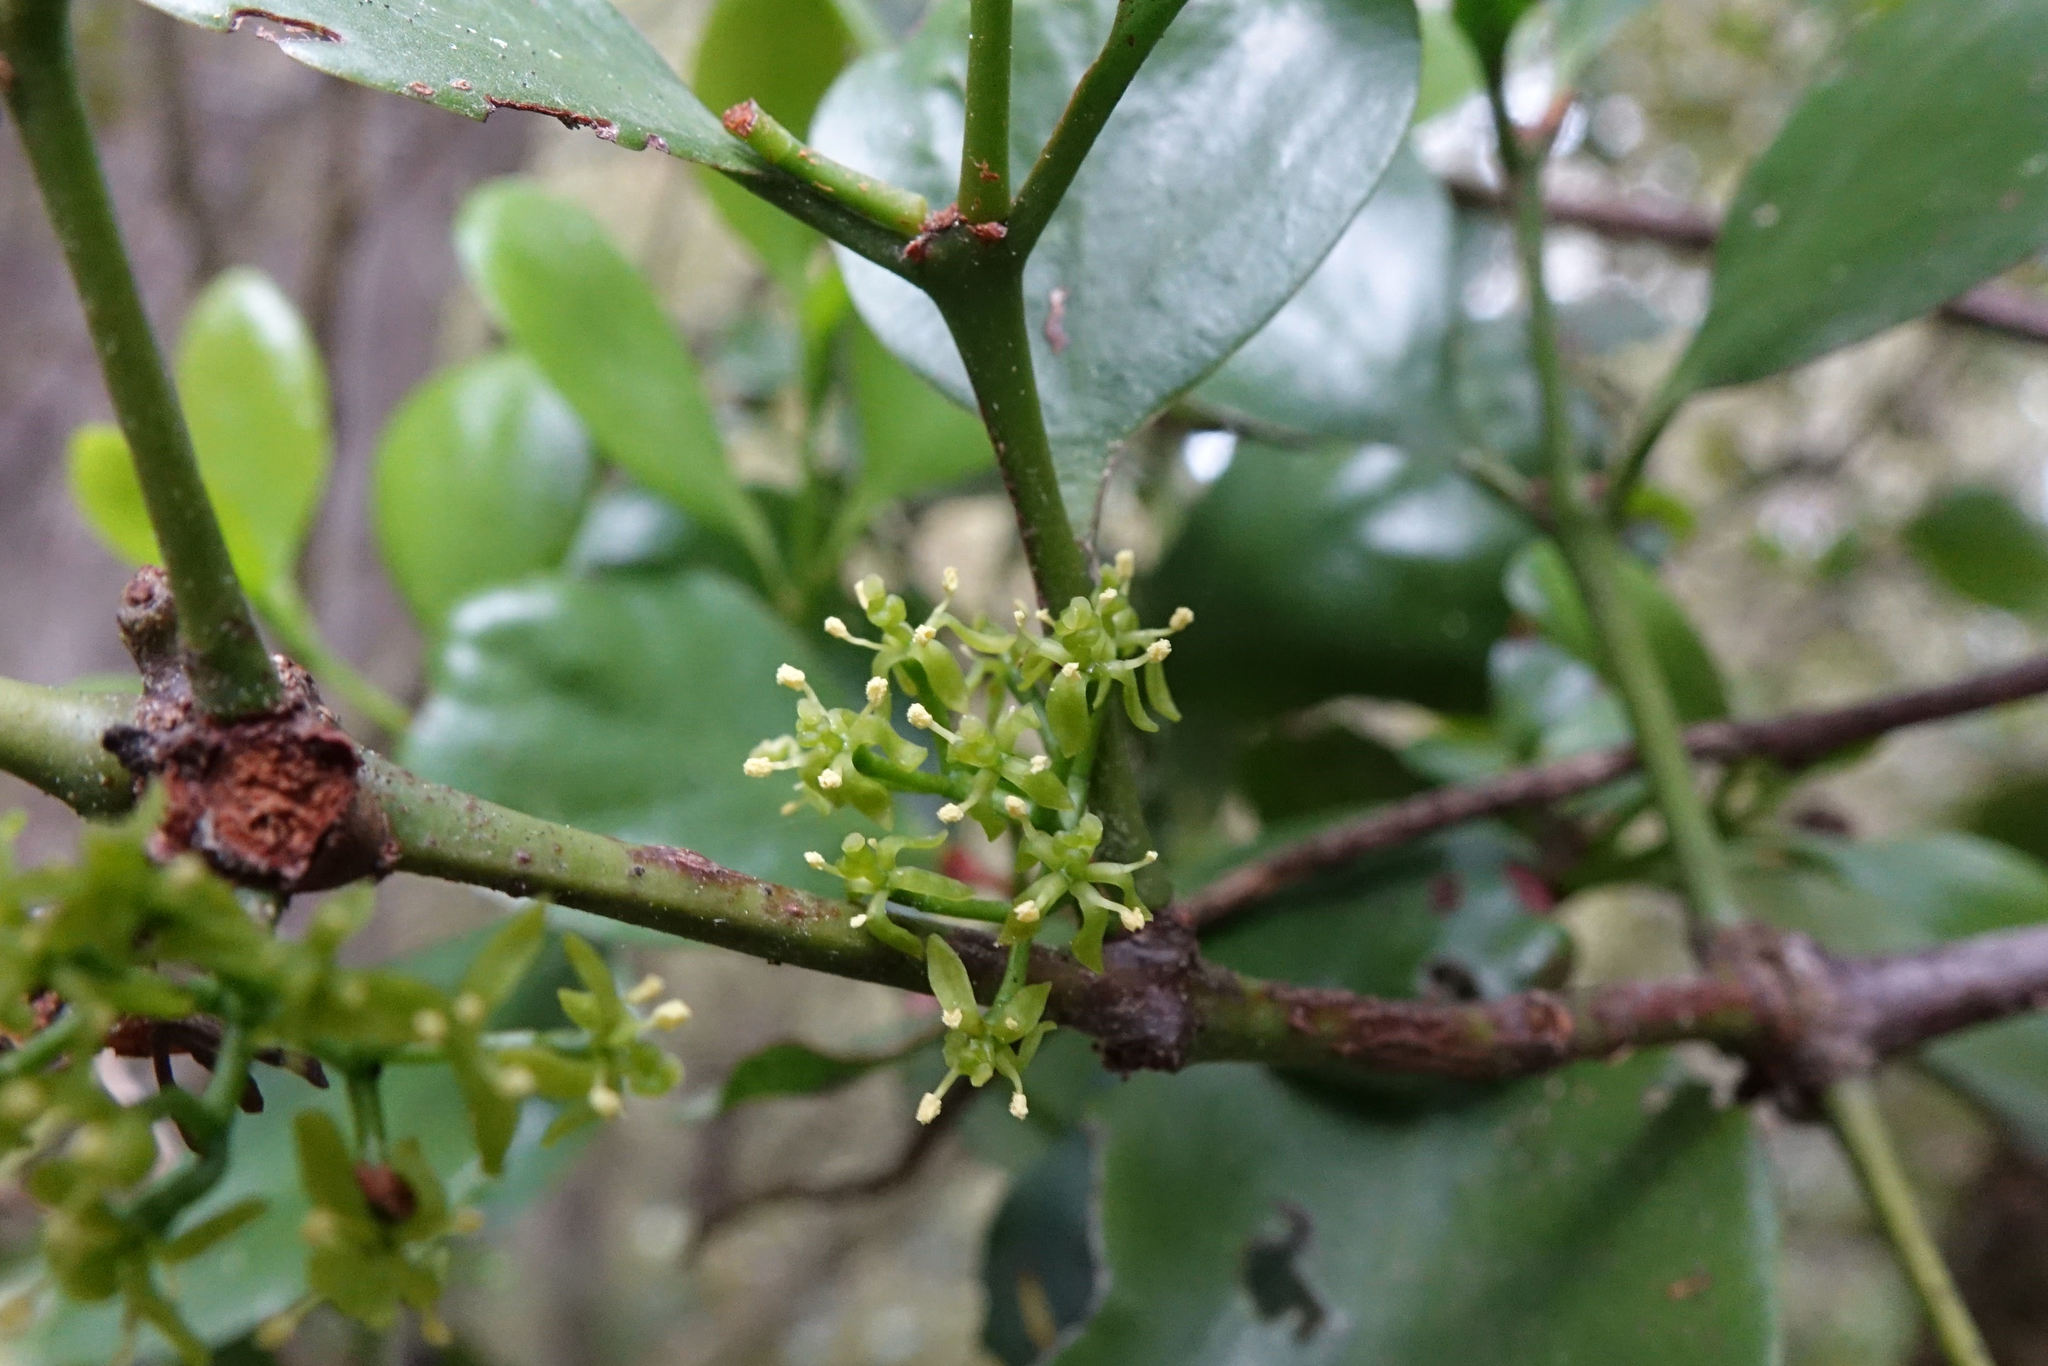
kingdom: Plantae
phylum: Tracheophyta
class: Magnoliopsida
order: Santalales
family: Loranthaceae
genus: Ileostylus
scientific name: Ileostylus micranthus
